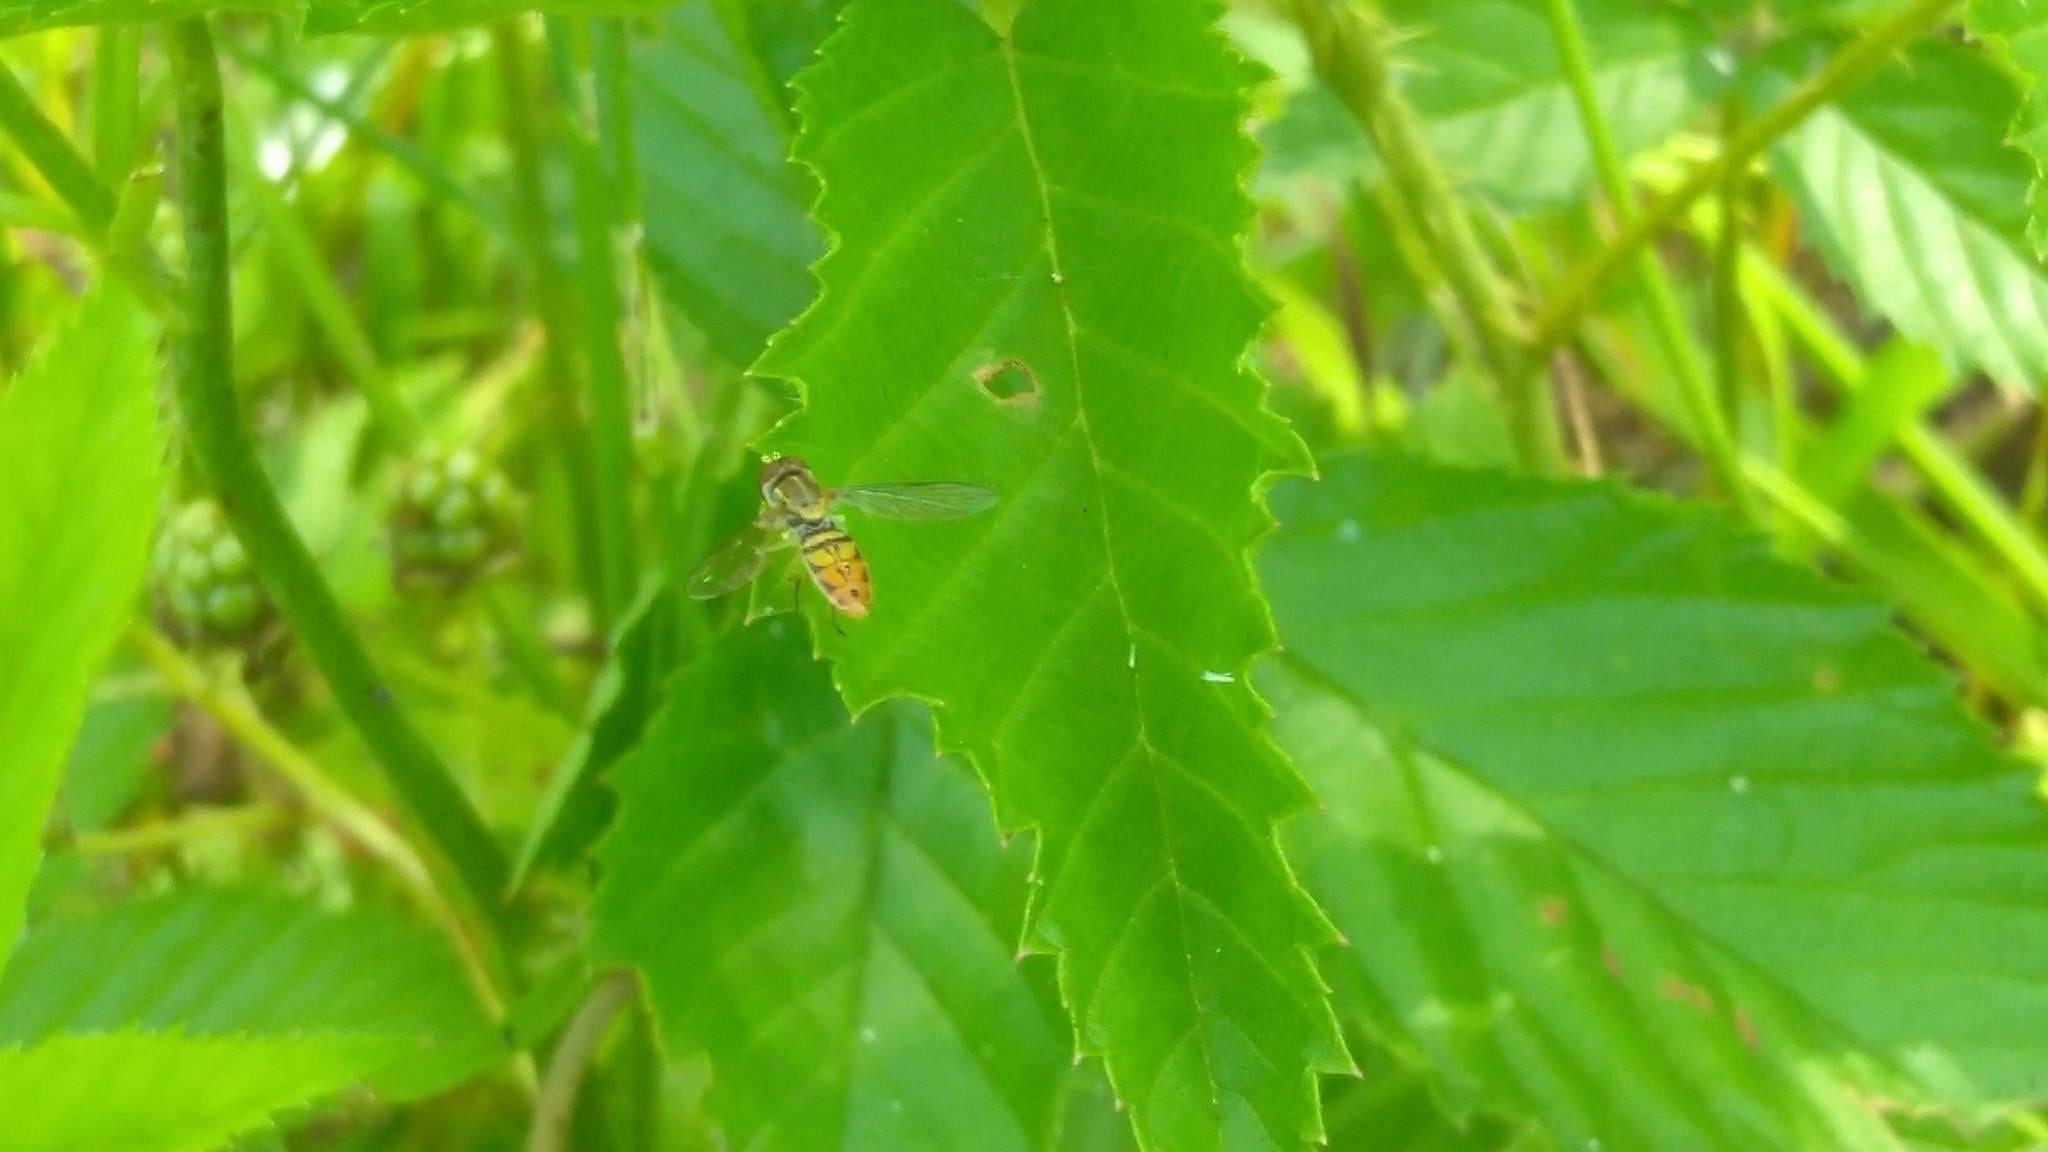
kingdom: Animalia
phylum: Arthropoda
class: Insecta
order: Diptera
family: Syrphidae
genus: Toxomerus
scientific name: Toxomerus marginatus
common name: Syrphid fly
